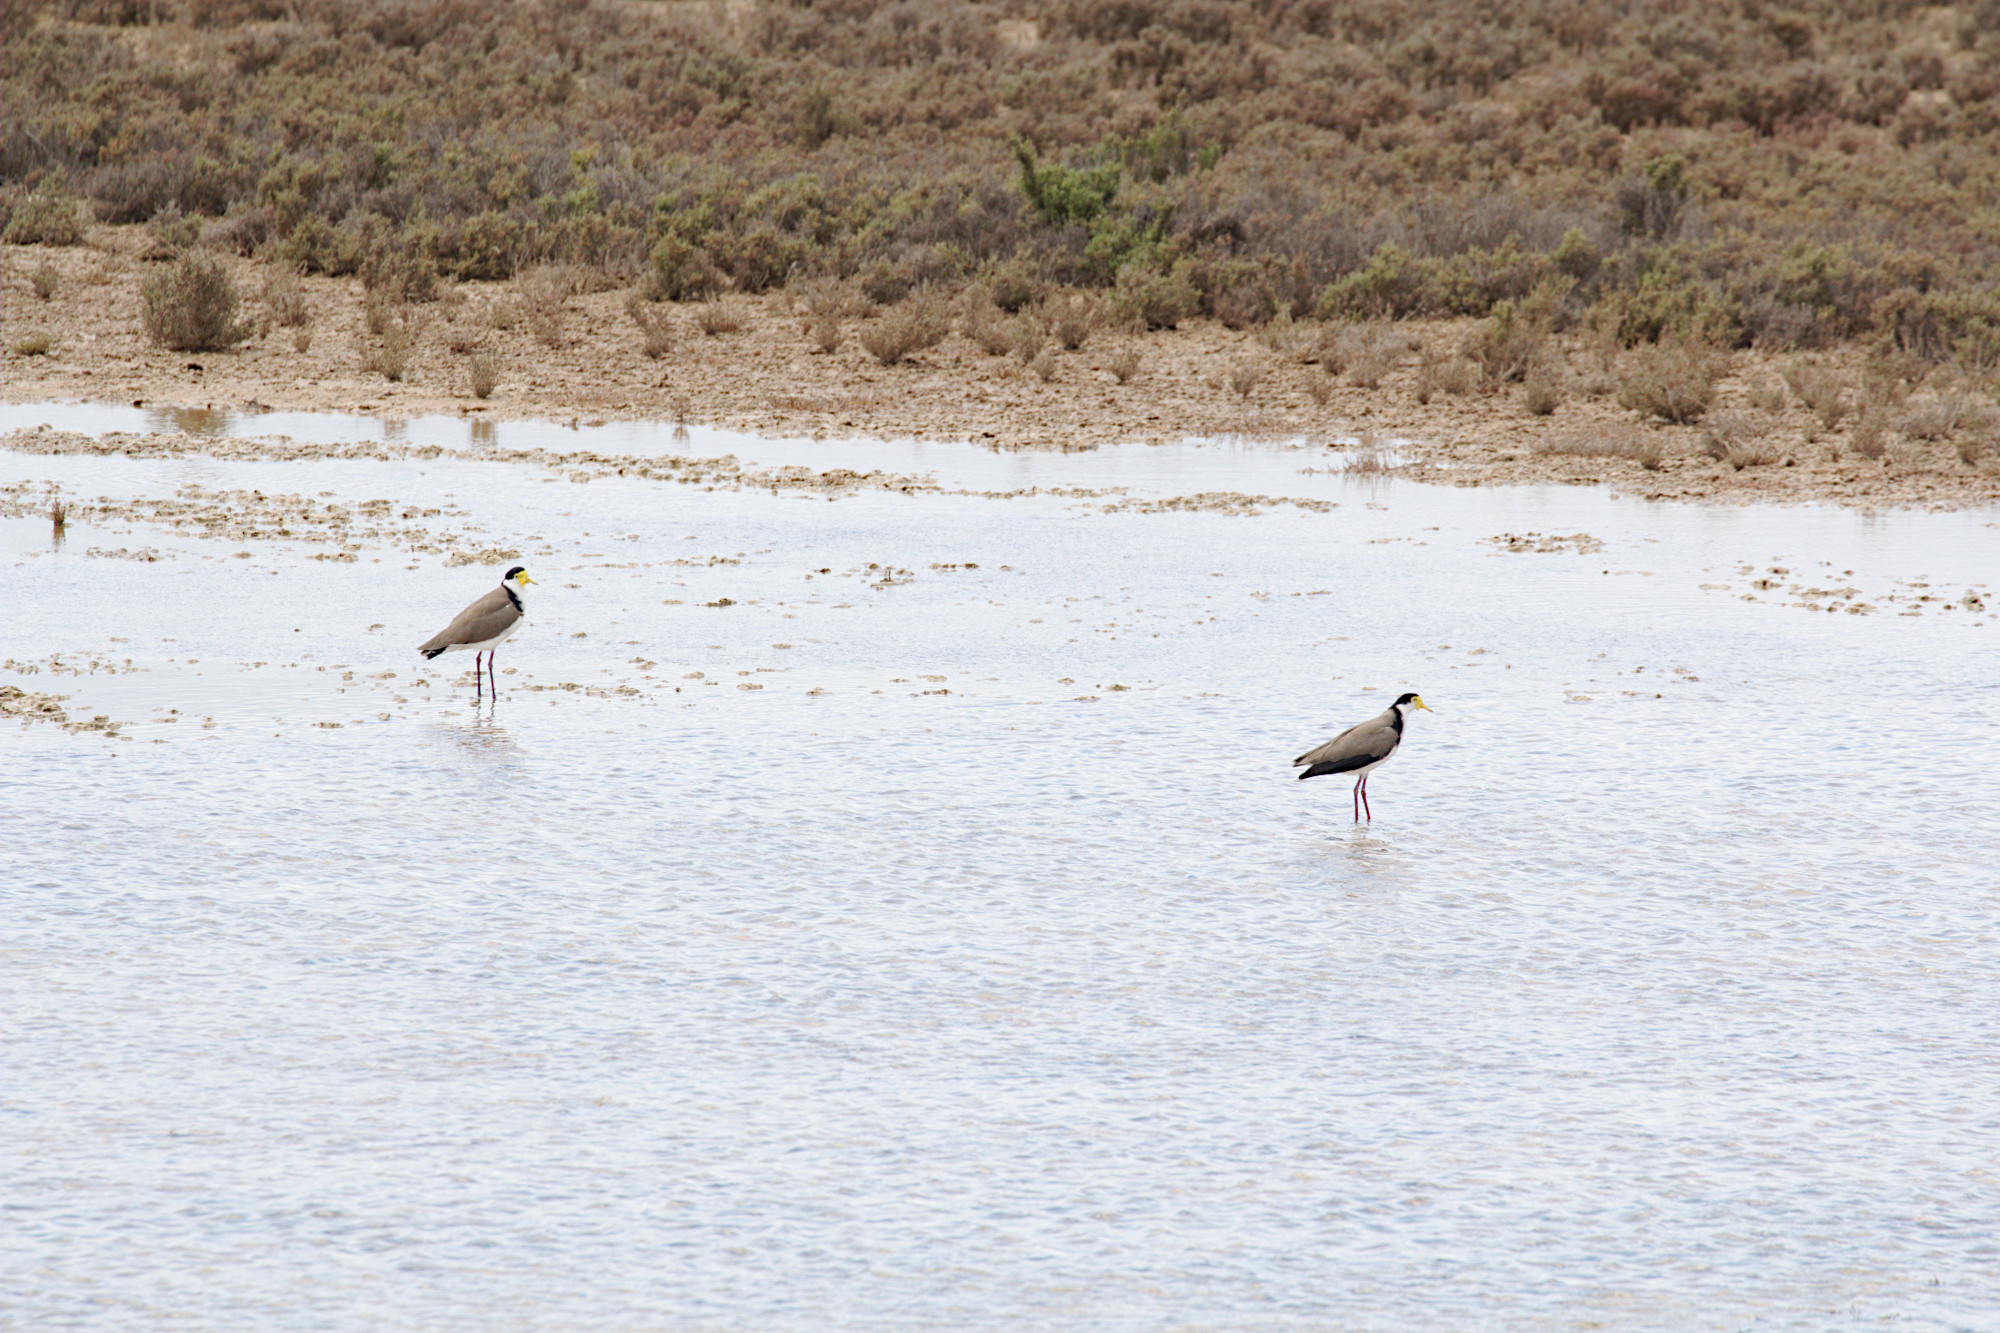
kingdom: Animalia
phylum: Chordata
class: Aves
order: Charadriiformes
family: Charadriidae
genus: Vanellus
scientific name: Vanellus miles
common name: Masked lapwing
